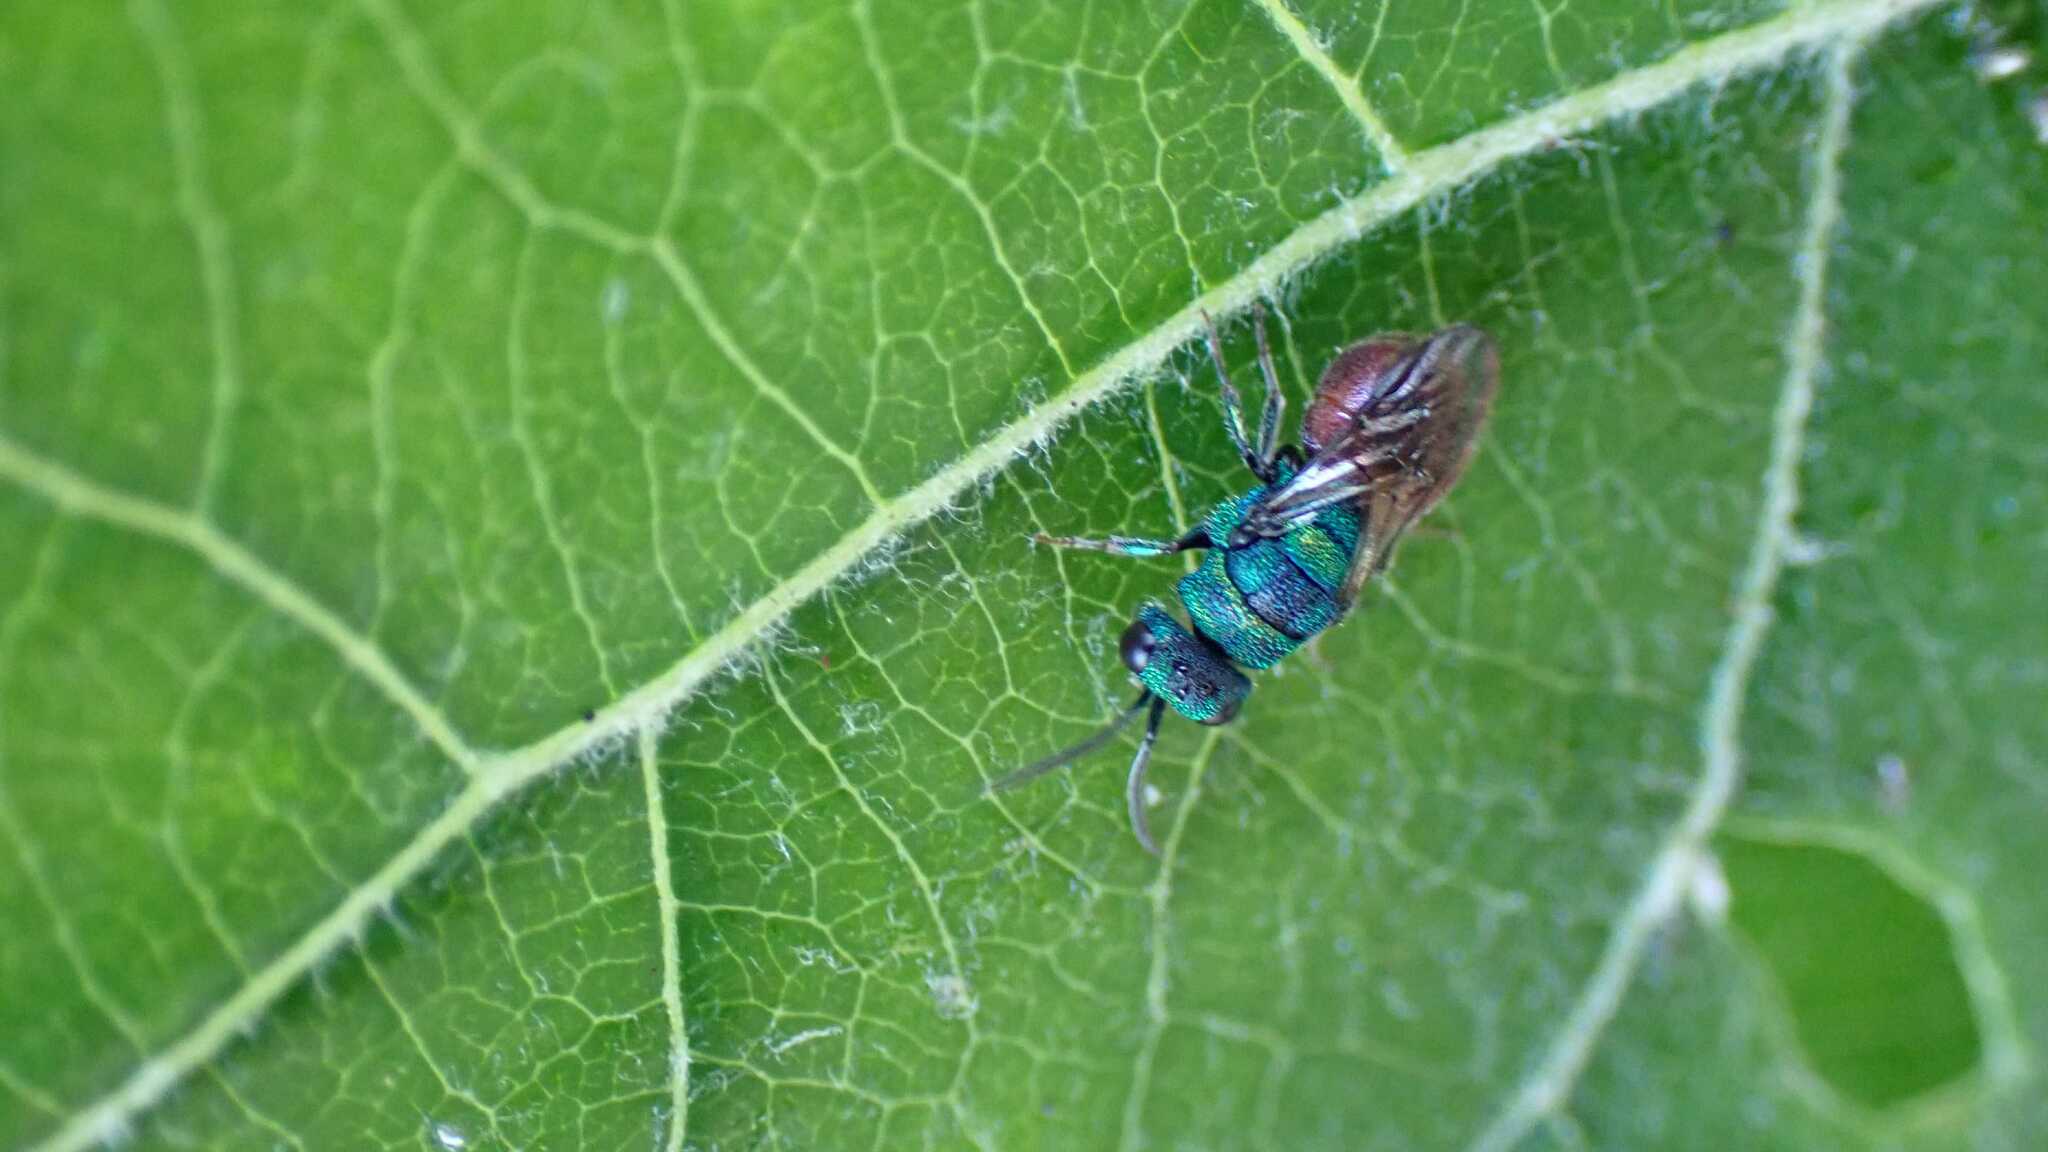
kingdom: Animalia
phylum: Arthropoda
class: Insecta
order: Hymenoptera
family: Chrysididae
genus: Hedychridium
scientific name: Hedychridium roseum
